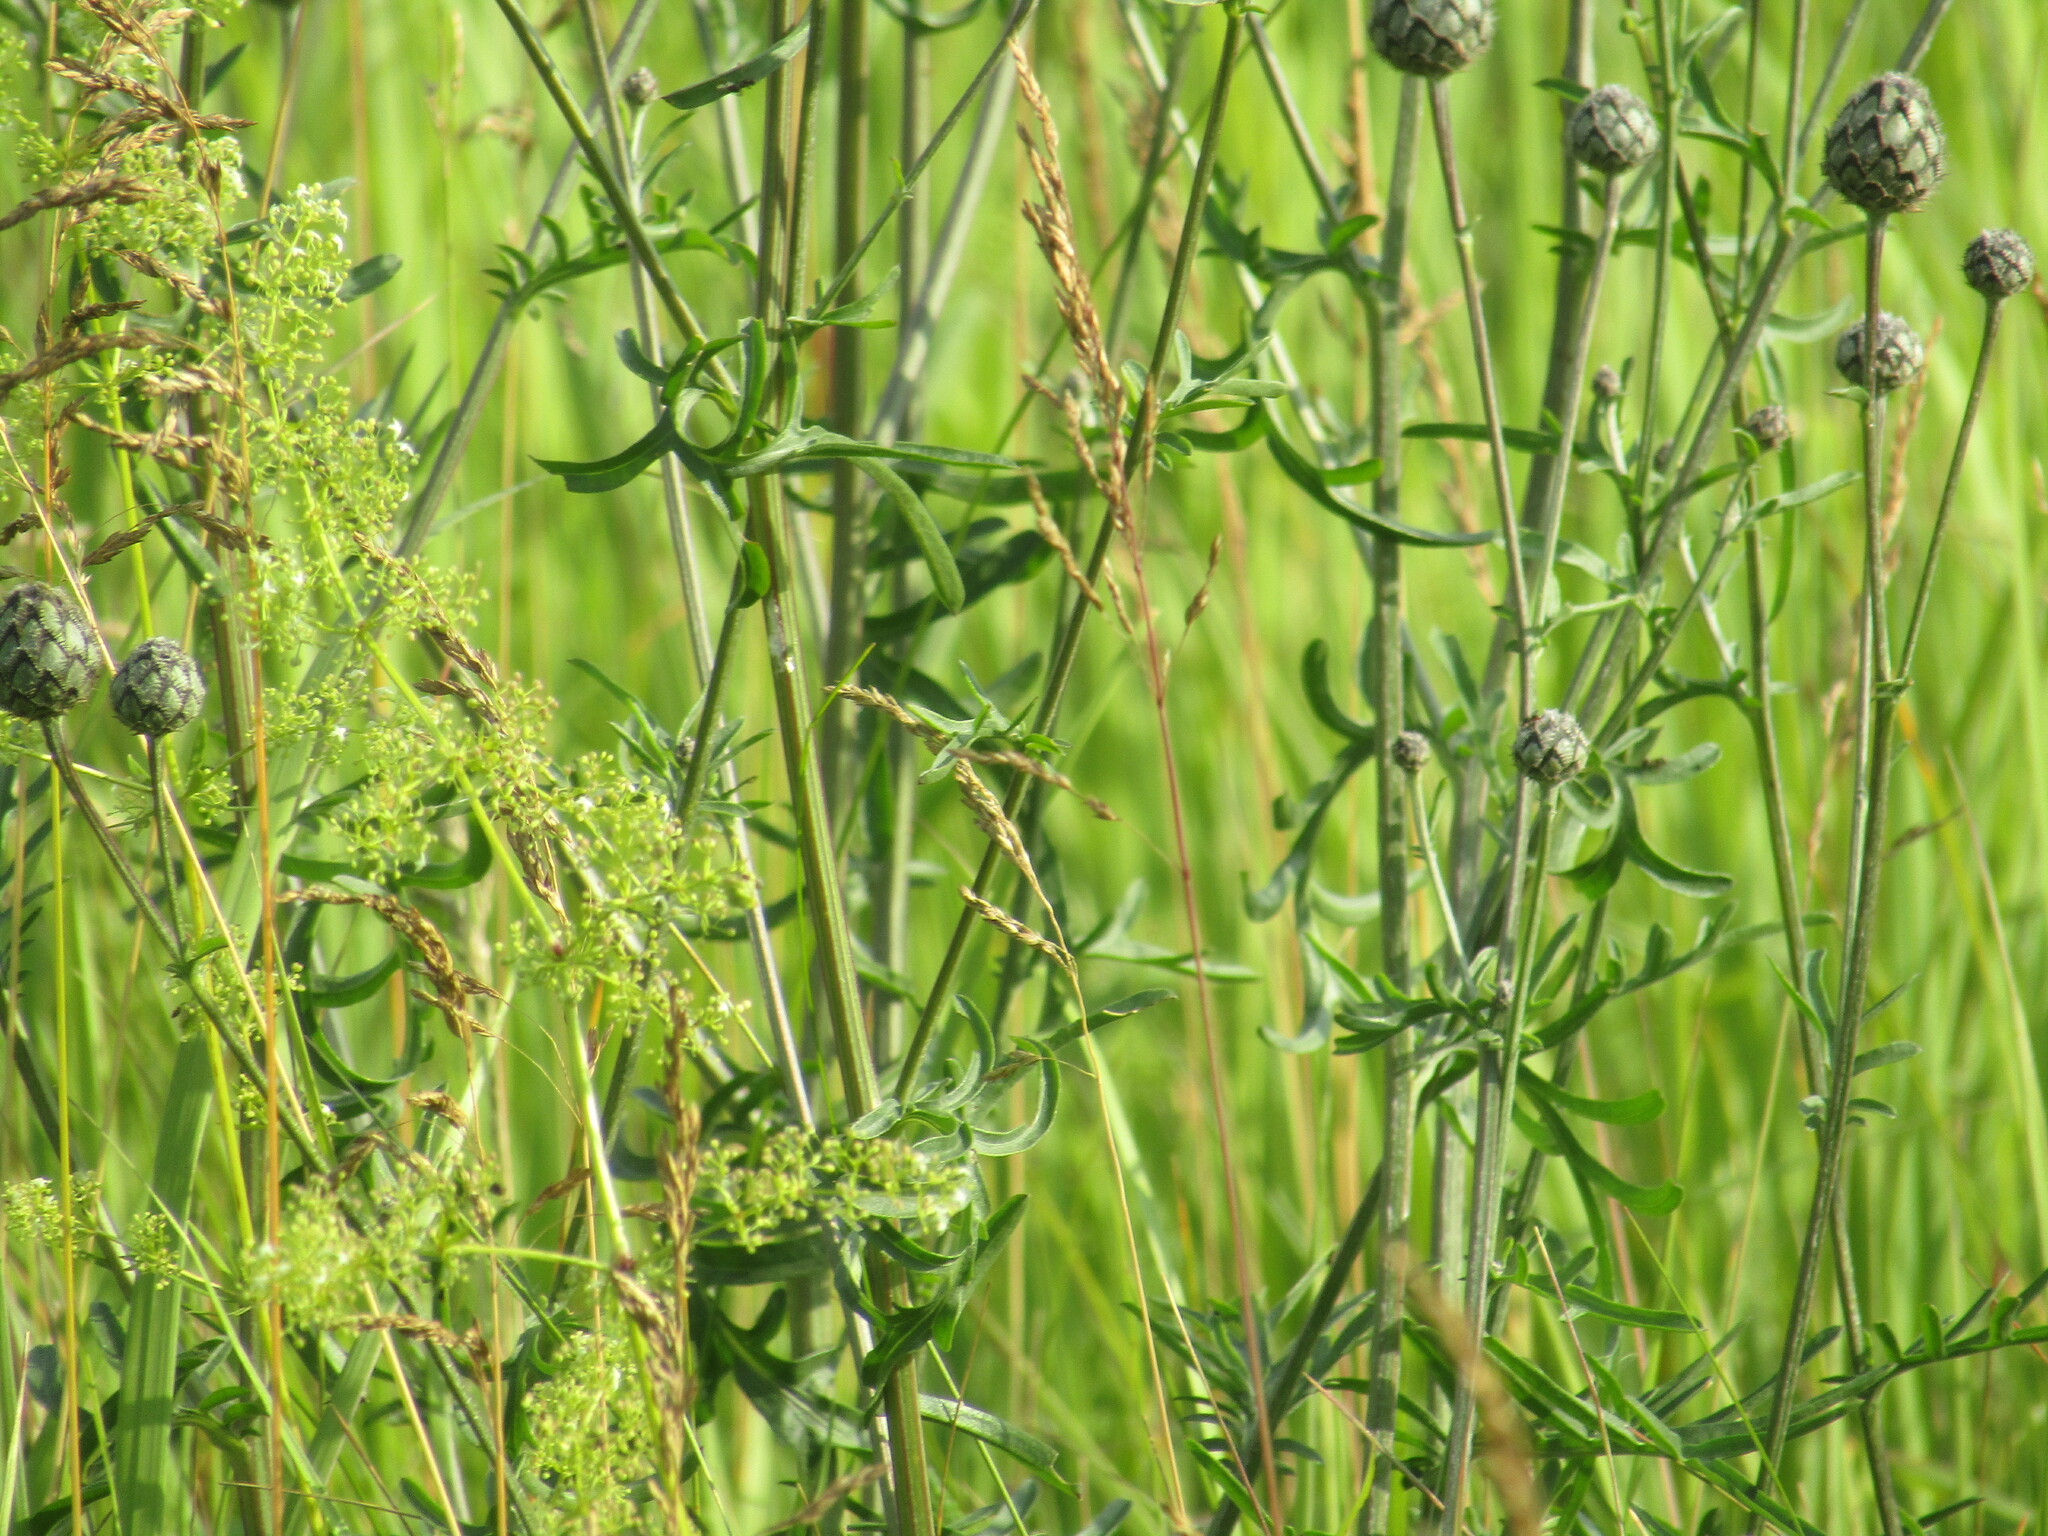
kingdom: Plantae
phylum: Tracheophyta
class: Magnoliopsida
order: Asterales
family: Asteraceae
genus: Centaurea
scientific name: Centaurea scabiosa
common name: Greater knapweed
